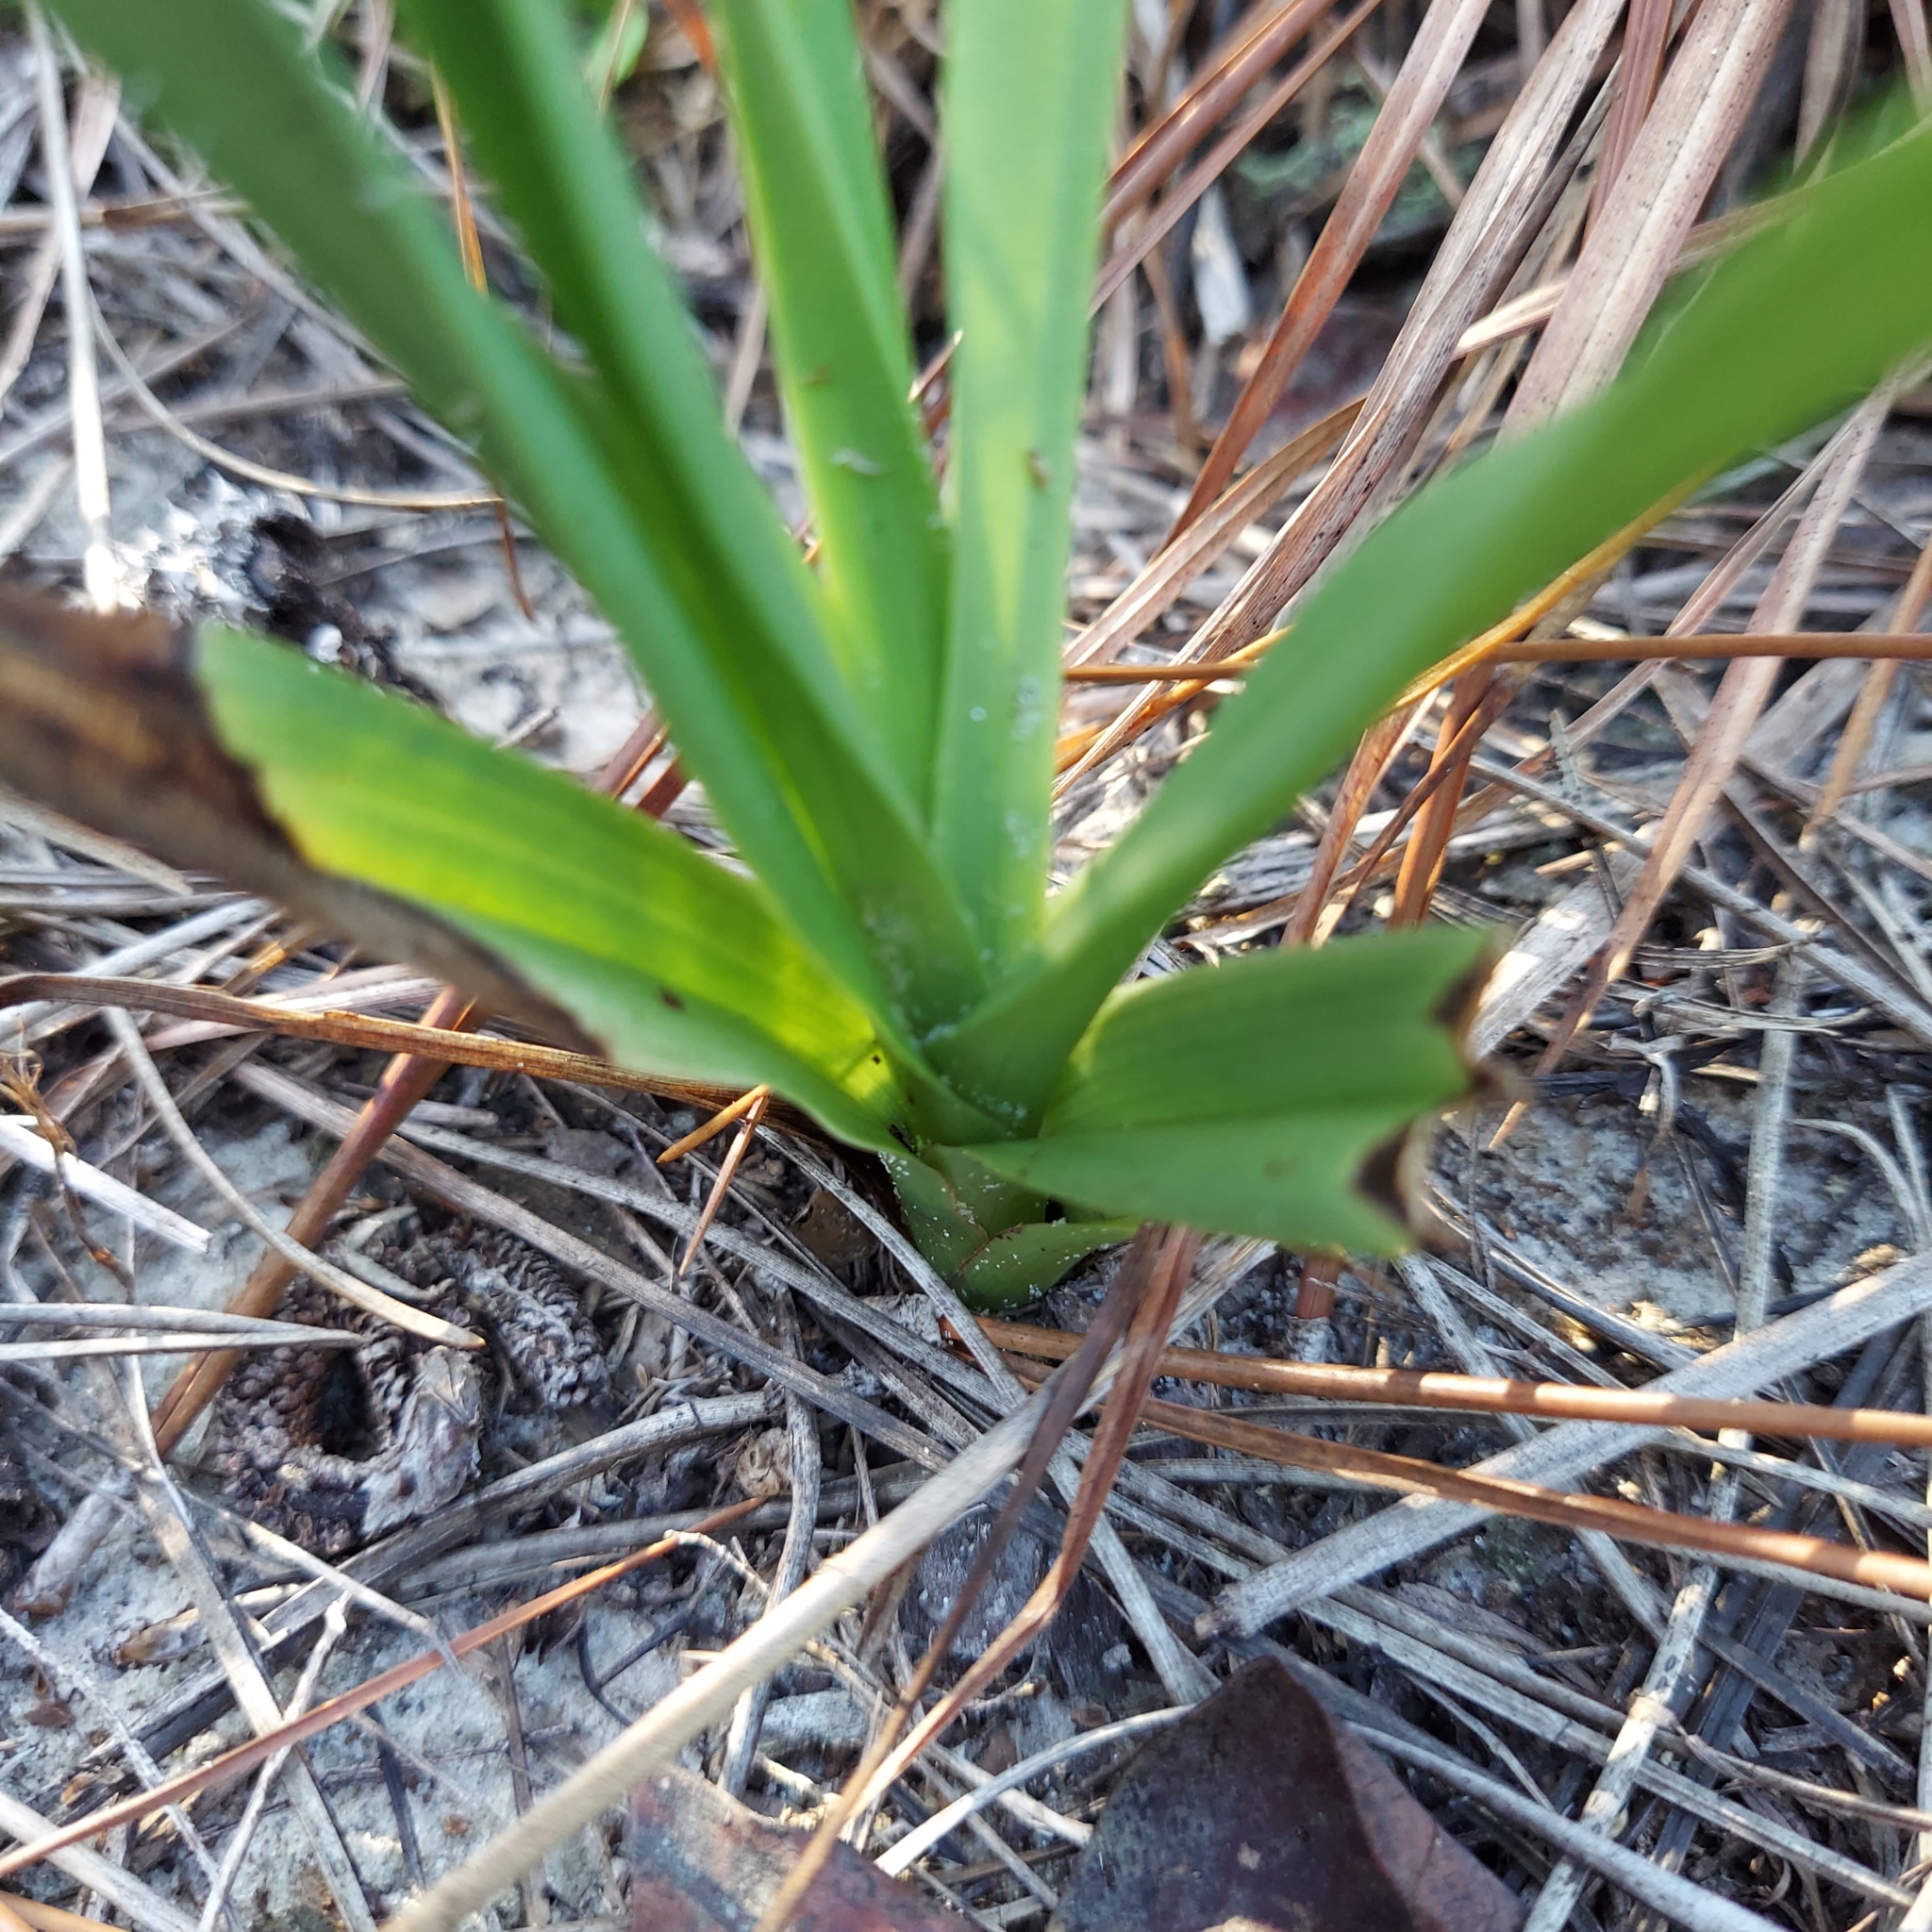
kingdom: Plantae
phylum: Tracheophyta
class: Liliopsida
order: Asparagales
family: Orchidaceae
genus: Eulophia
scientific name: Eulophia graminea
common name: Orchid
